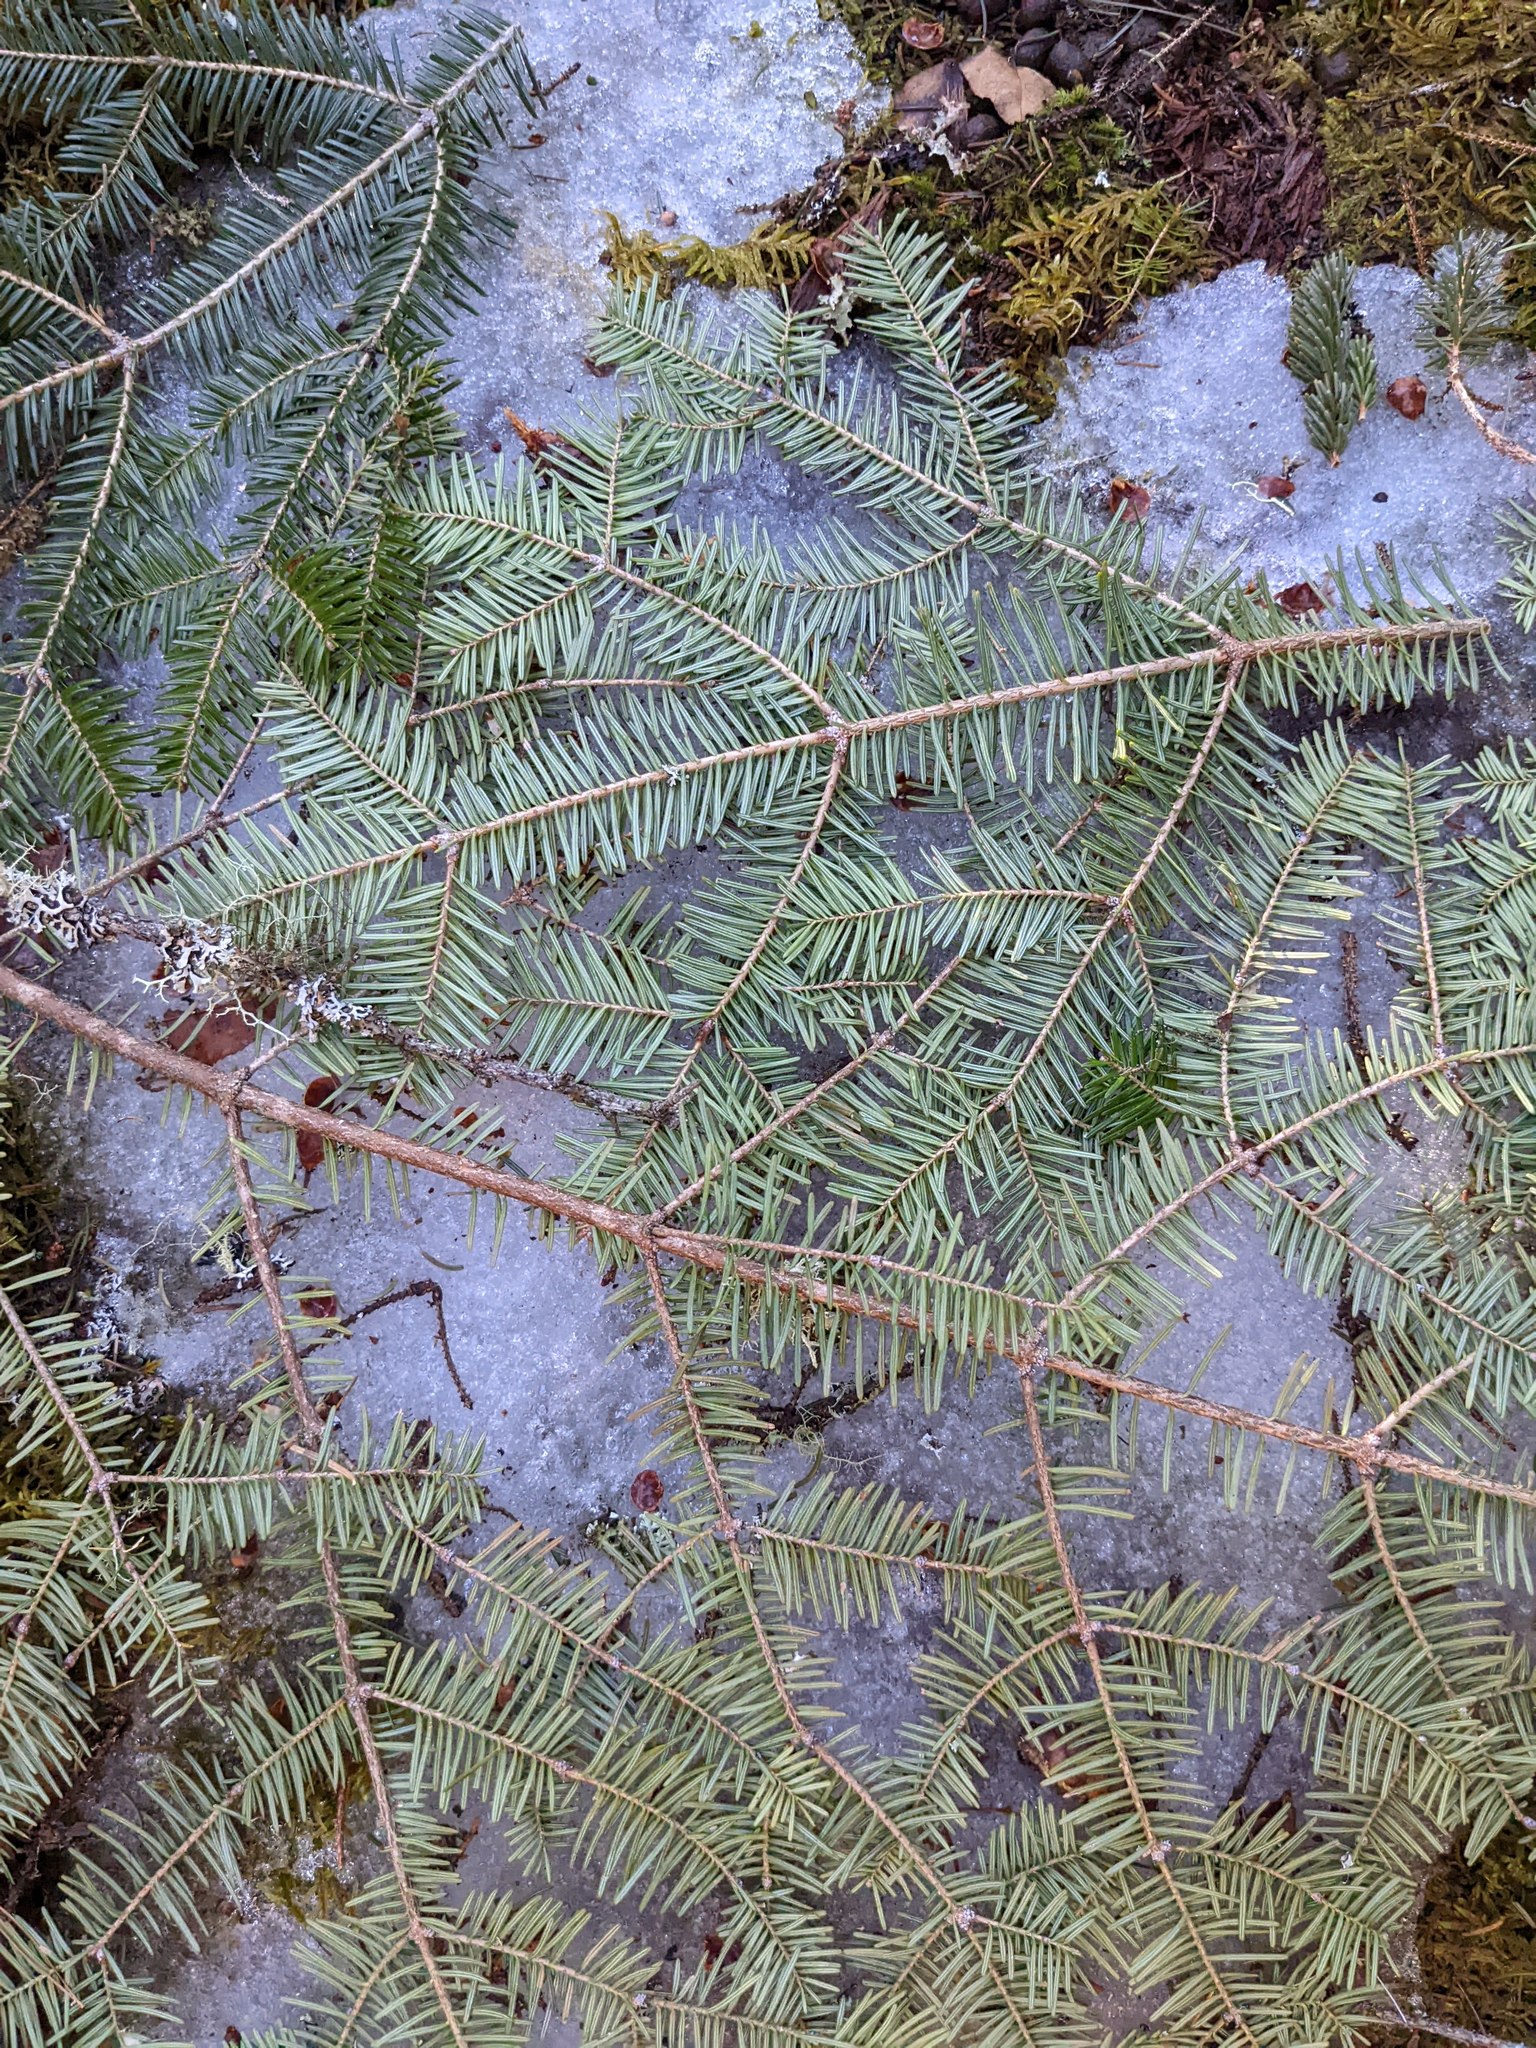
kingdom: Plantae
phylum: Tracheophyta
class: Pinopsida
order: Pinales
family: Pinaceae
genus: Abies
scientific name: Abies balsamea
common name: Balsam fir
